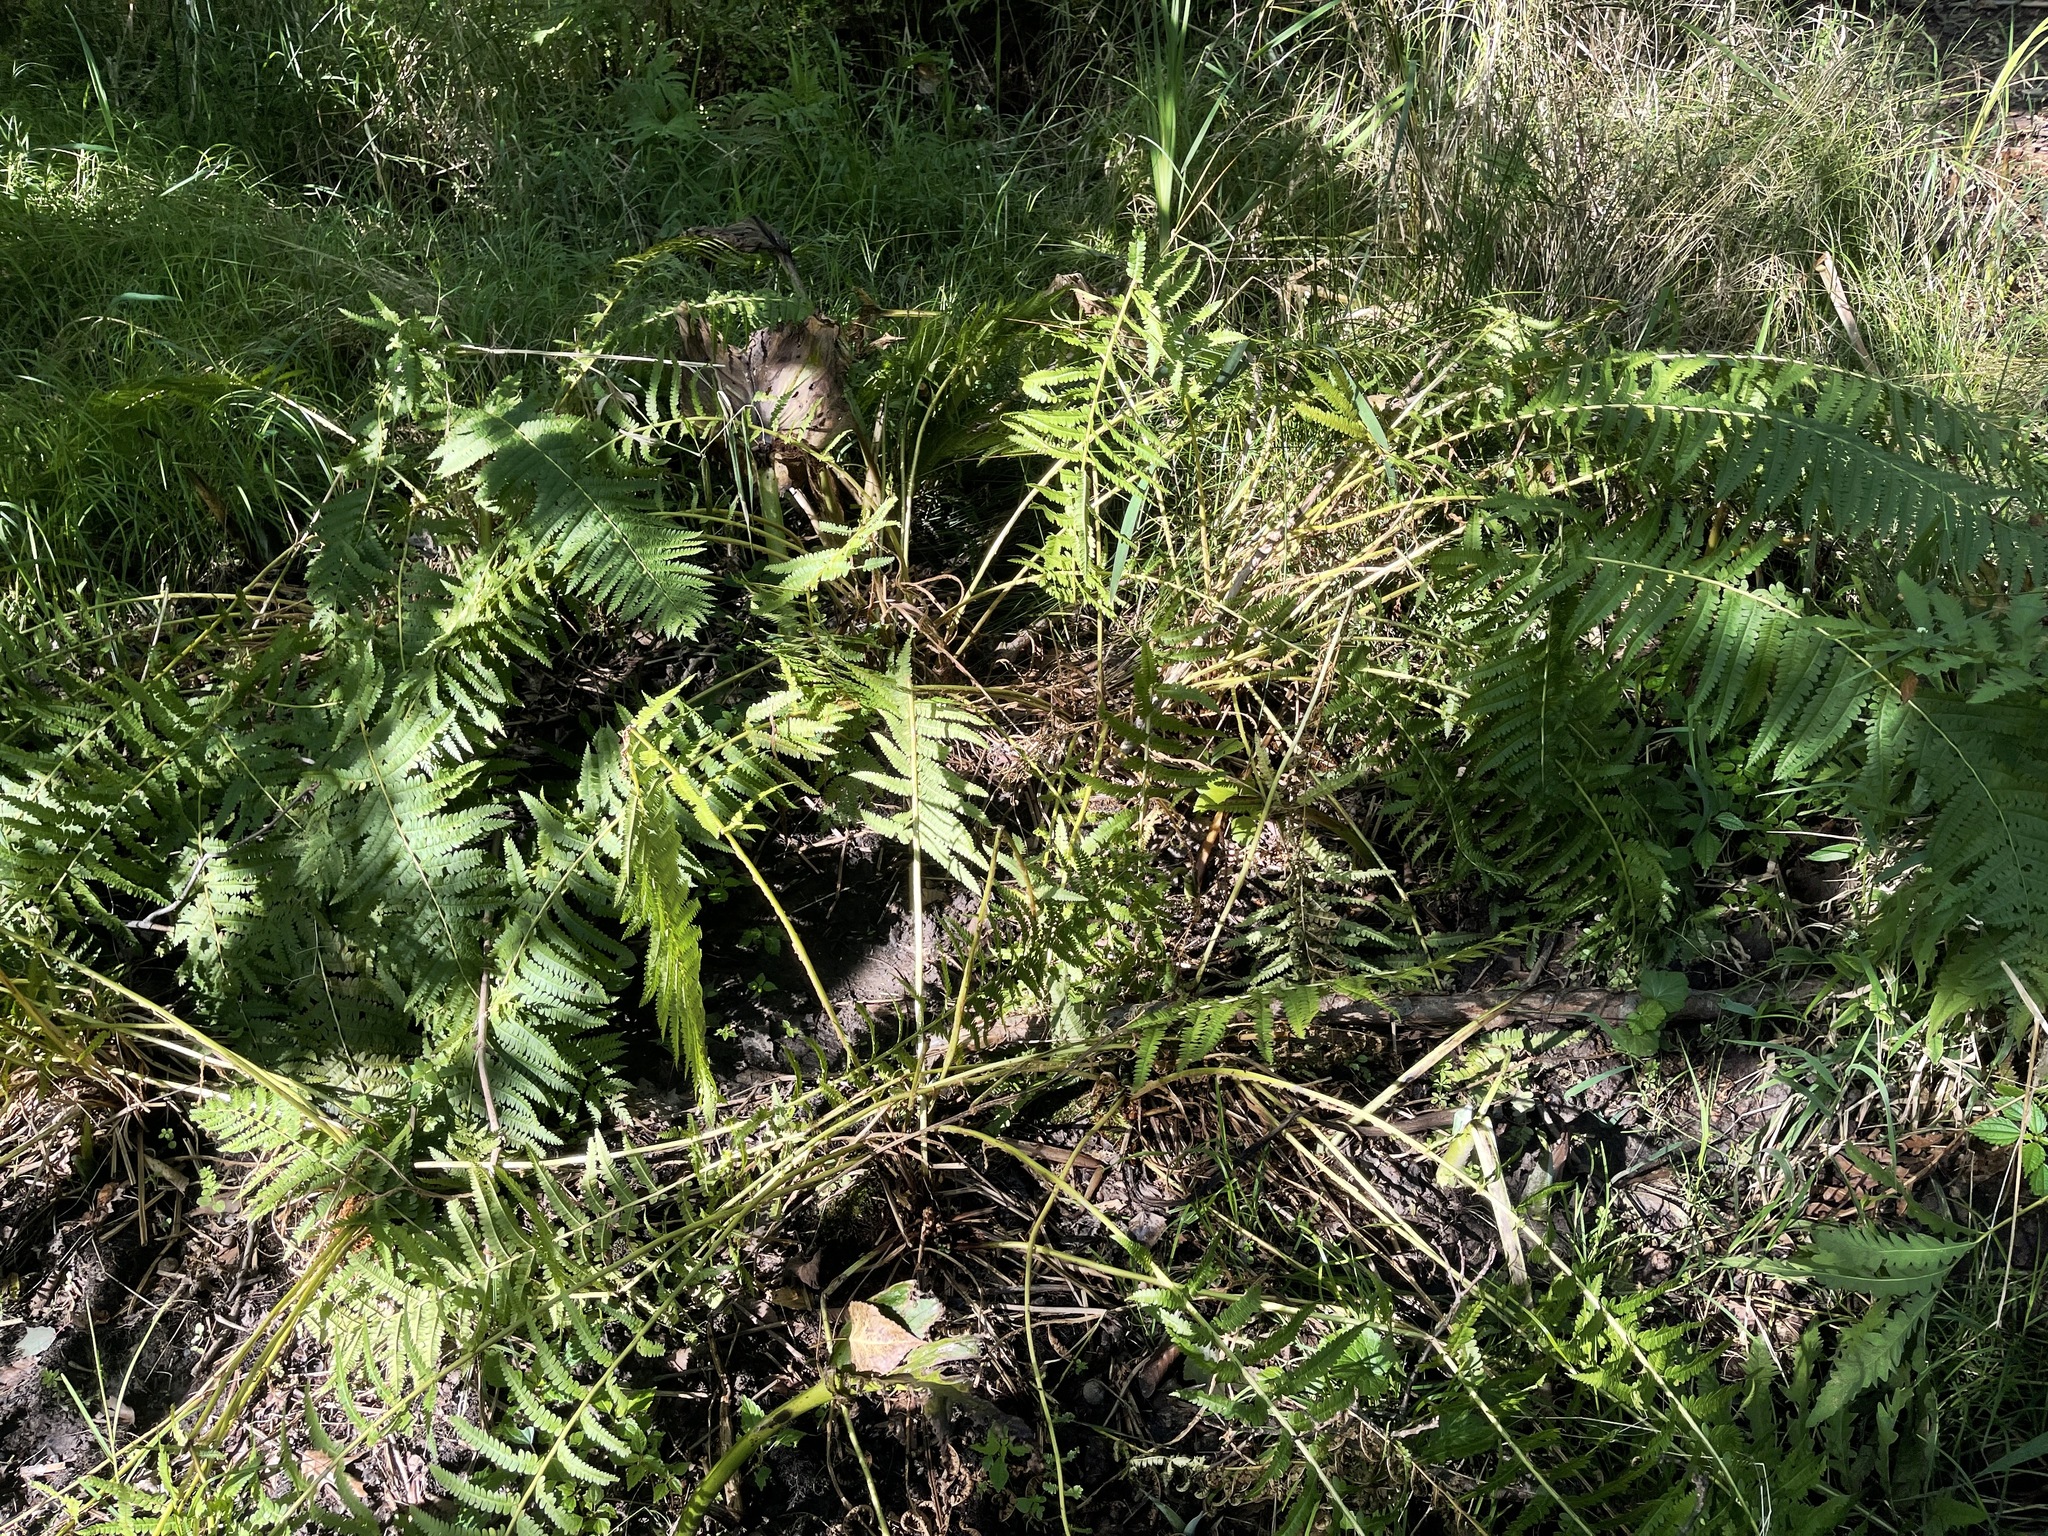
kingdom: Plantae
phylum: Tracheophyta
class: Polypodiopsida
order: Osmundales
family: Osmundaceae
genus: Osmundastrum
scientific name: Osmundastrum cinnamomeum
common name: Cinnamon fern
